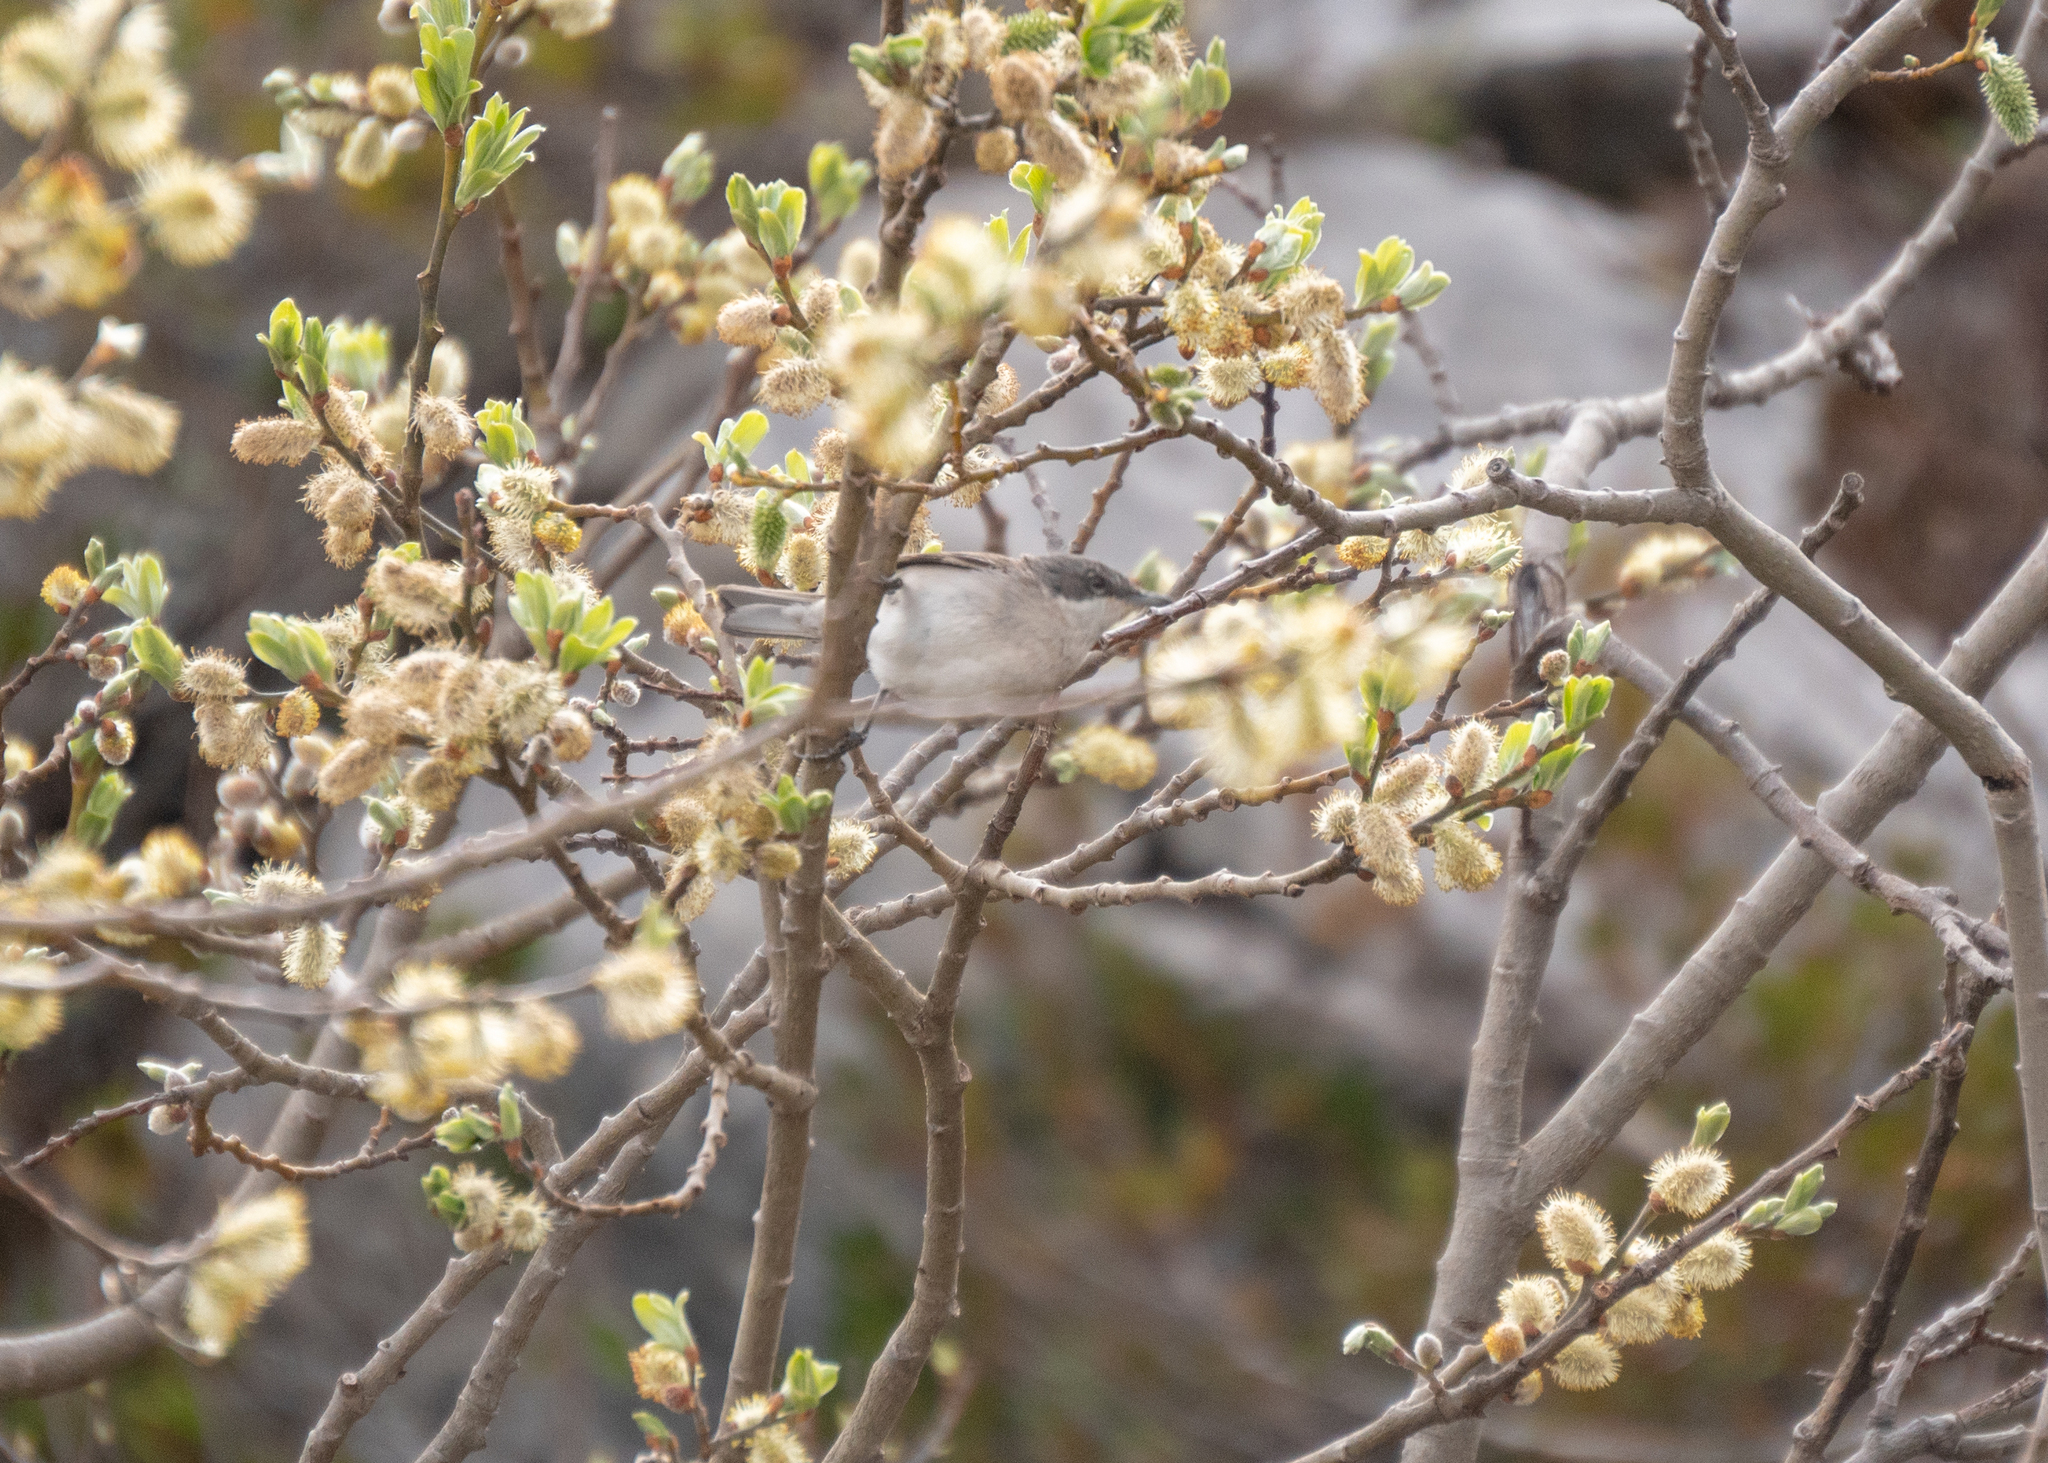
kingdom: Animalia
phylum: Chordata
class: Aves
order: Passeriformes
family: Sylviidae
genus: Sylvia
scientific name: Sylvia curruca
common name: Lesser whitethroat
